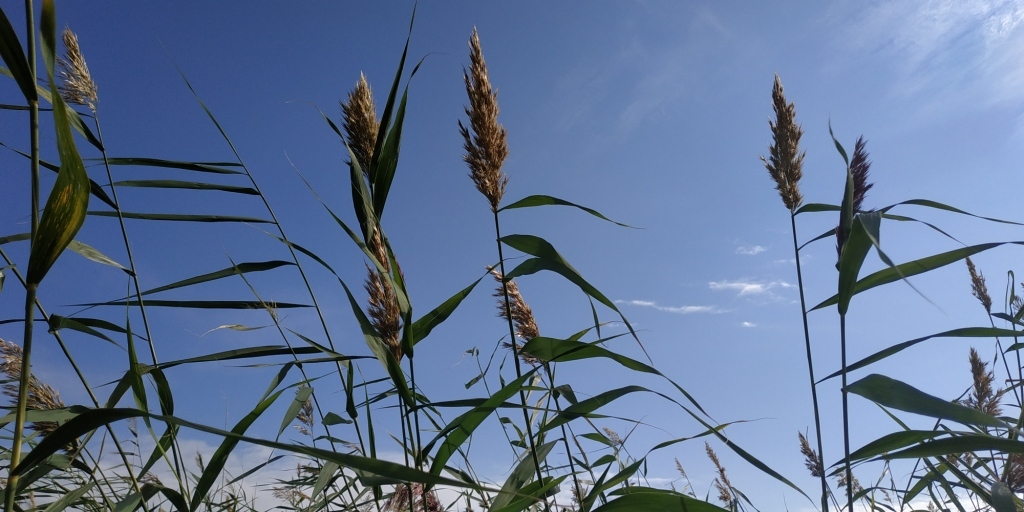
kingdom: Plantae
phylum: Tracheophyta
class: Liliopsida
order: Poales
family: Poaceae
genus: Phragmites
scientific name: Phragmites australis
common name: Common reed
